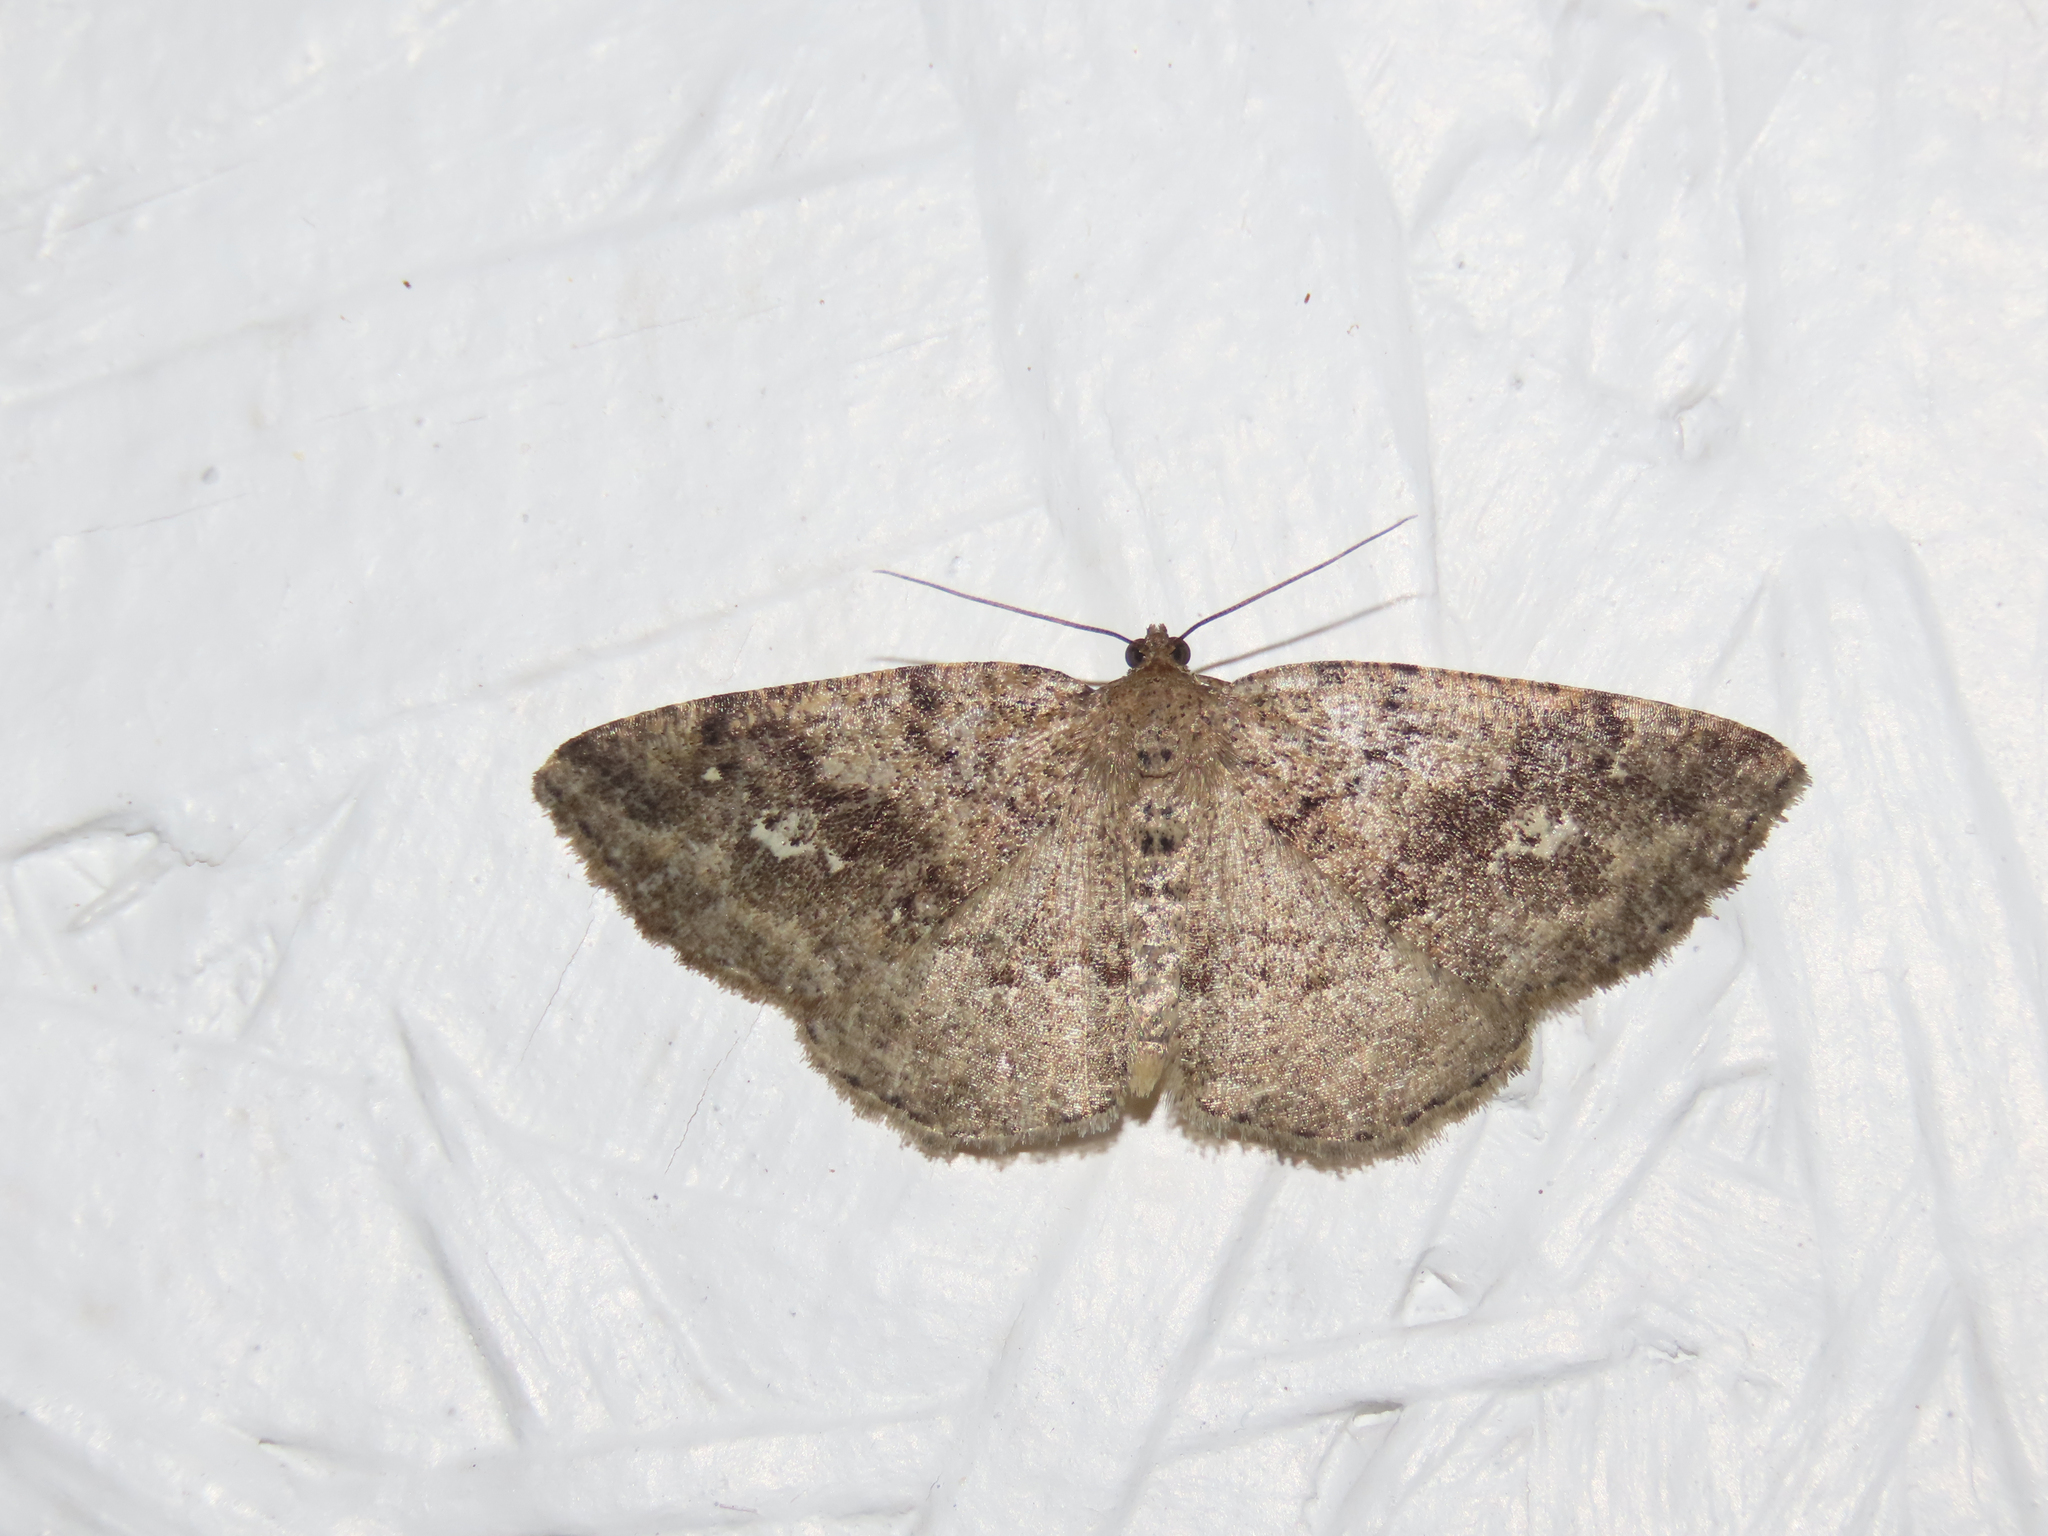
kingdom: Animalia
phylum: Arthropoda
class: Insecta
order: Lepidoptera
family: Geometridae
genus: Homochlodes
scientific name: Homochlodes fritillaria
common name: Pale homochlodes
